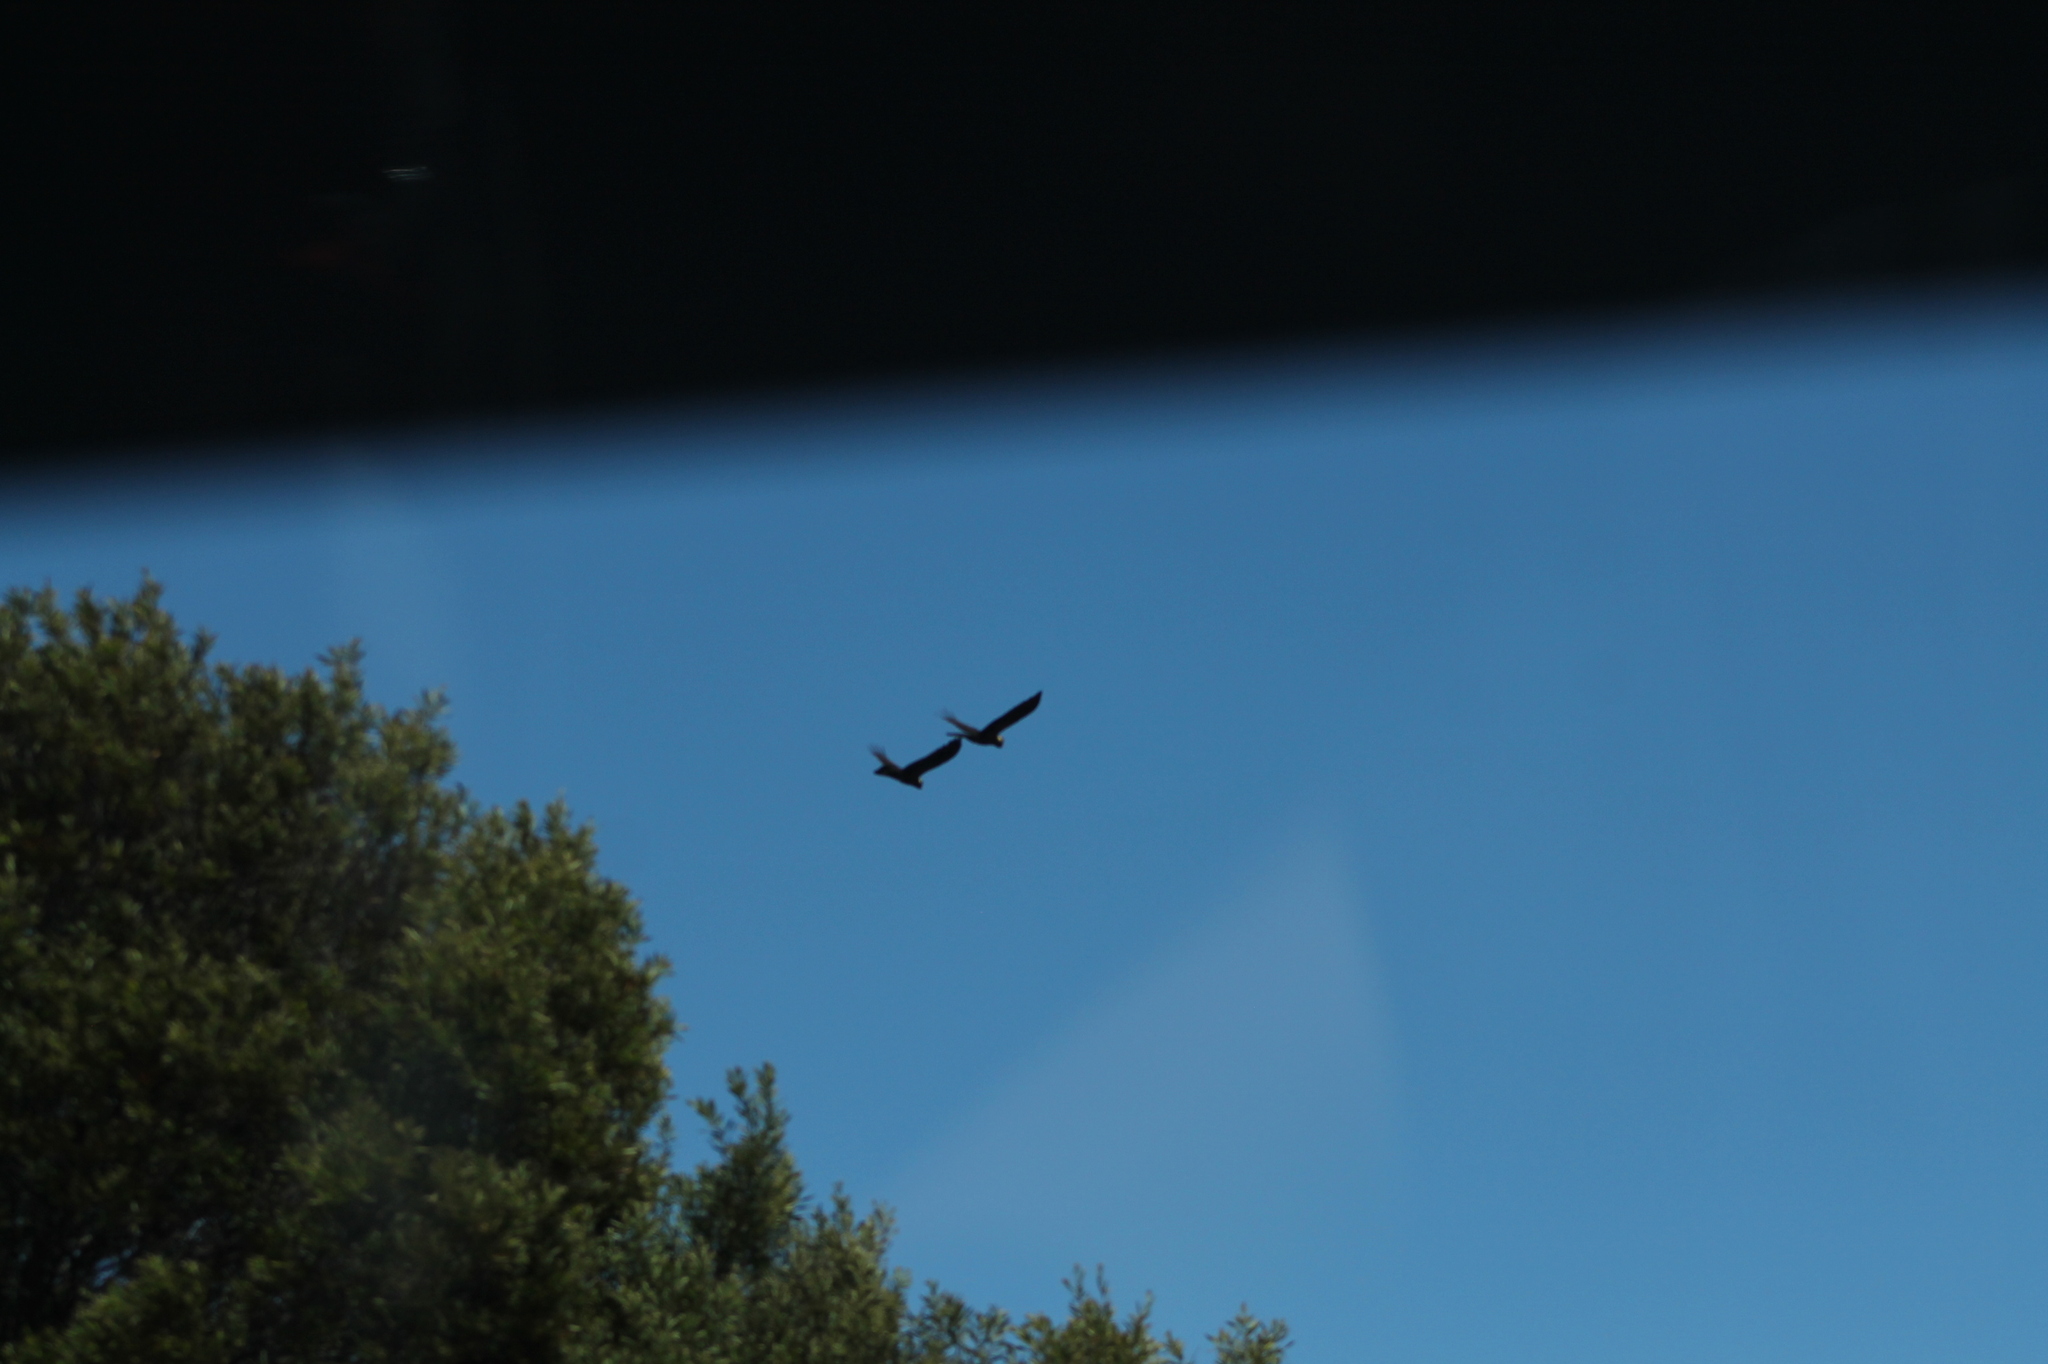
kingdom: Animalia
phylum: Chordata
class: Aves
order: Psittaciformes
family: Cacatuidae
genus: Zanda
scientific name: Zanda funerea
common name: Yellow-tailed black-cockatoo
